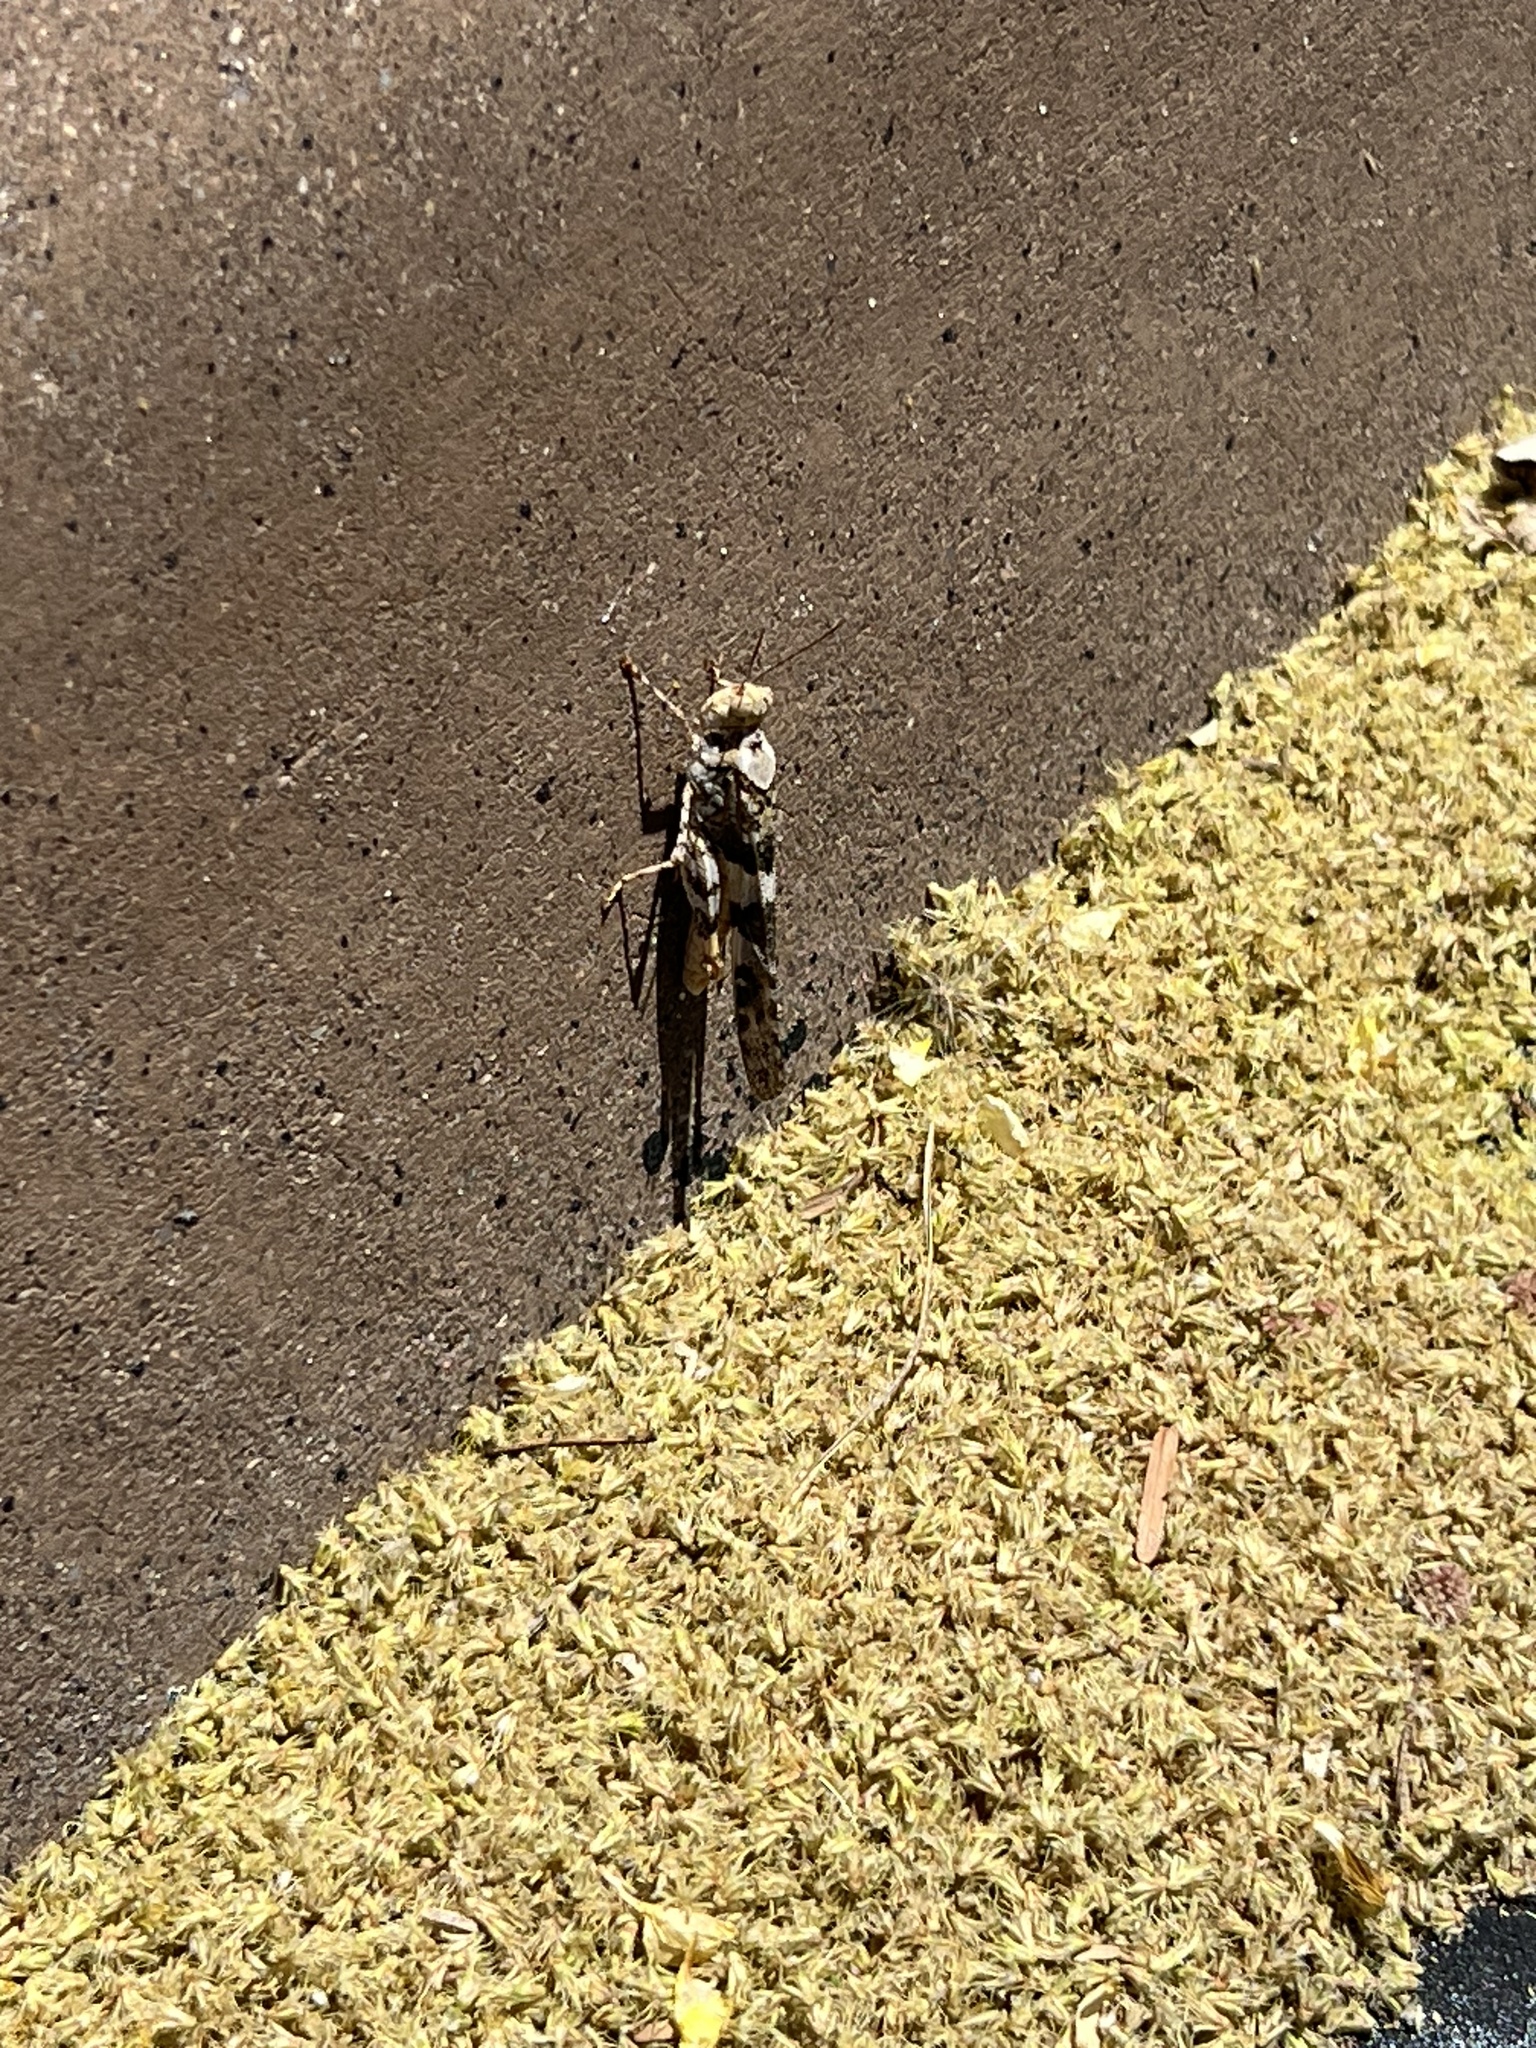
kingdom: Animalia
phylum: Arthropoda
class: Insecta
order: Orthoptera
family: Acrididae
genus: Trimerotropis
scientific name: Trimerotropis pallidipennis
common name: Pallid-winged grasshopper
